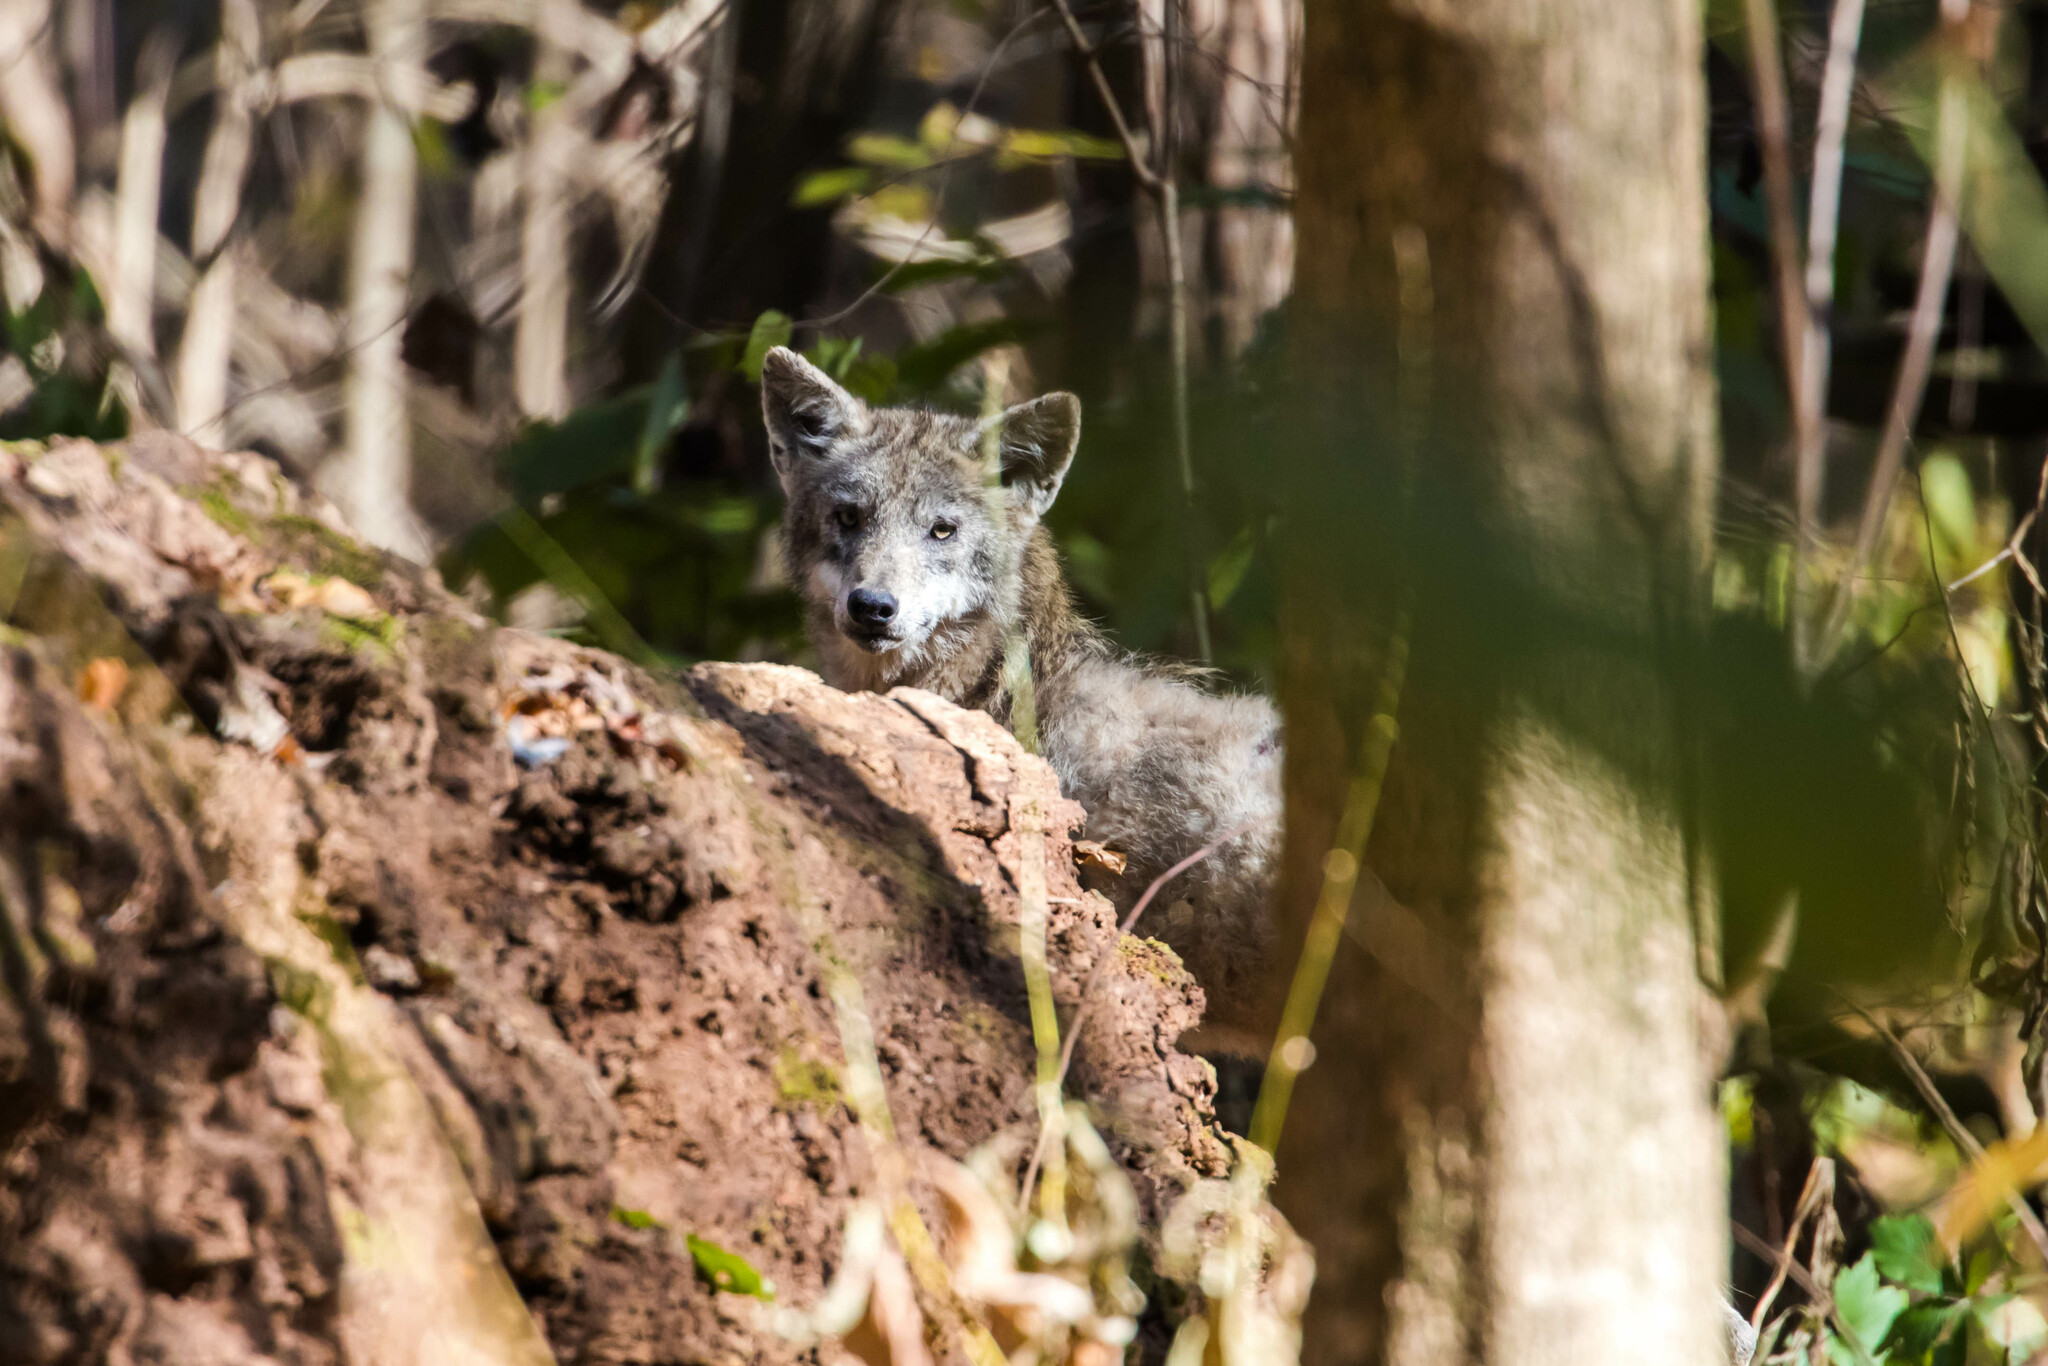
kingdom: Animalia
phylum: Chordata
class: Mammalia
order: Carnivora
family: Canidae
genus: Canis
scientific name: Canis latrans
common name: Coyote
